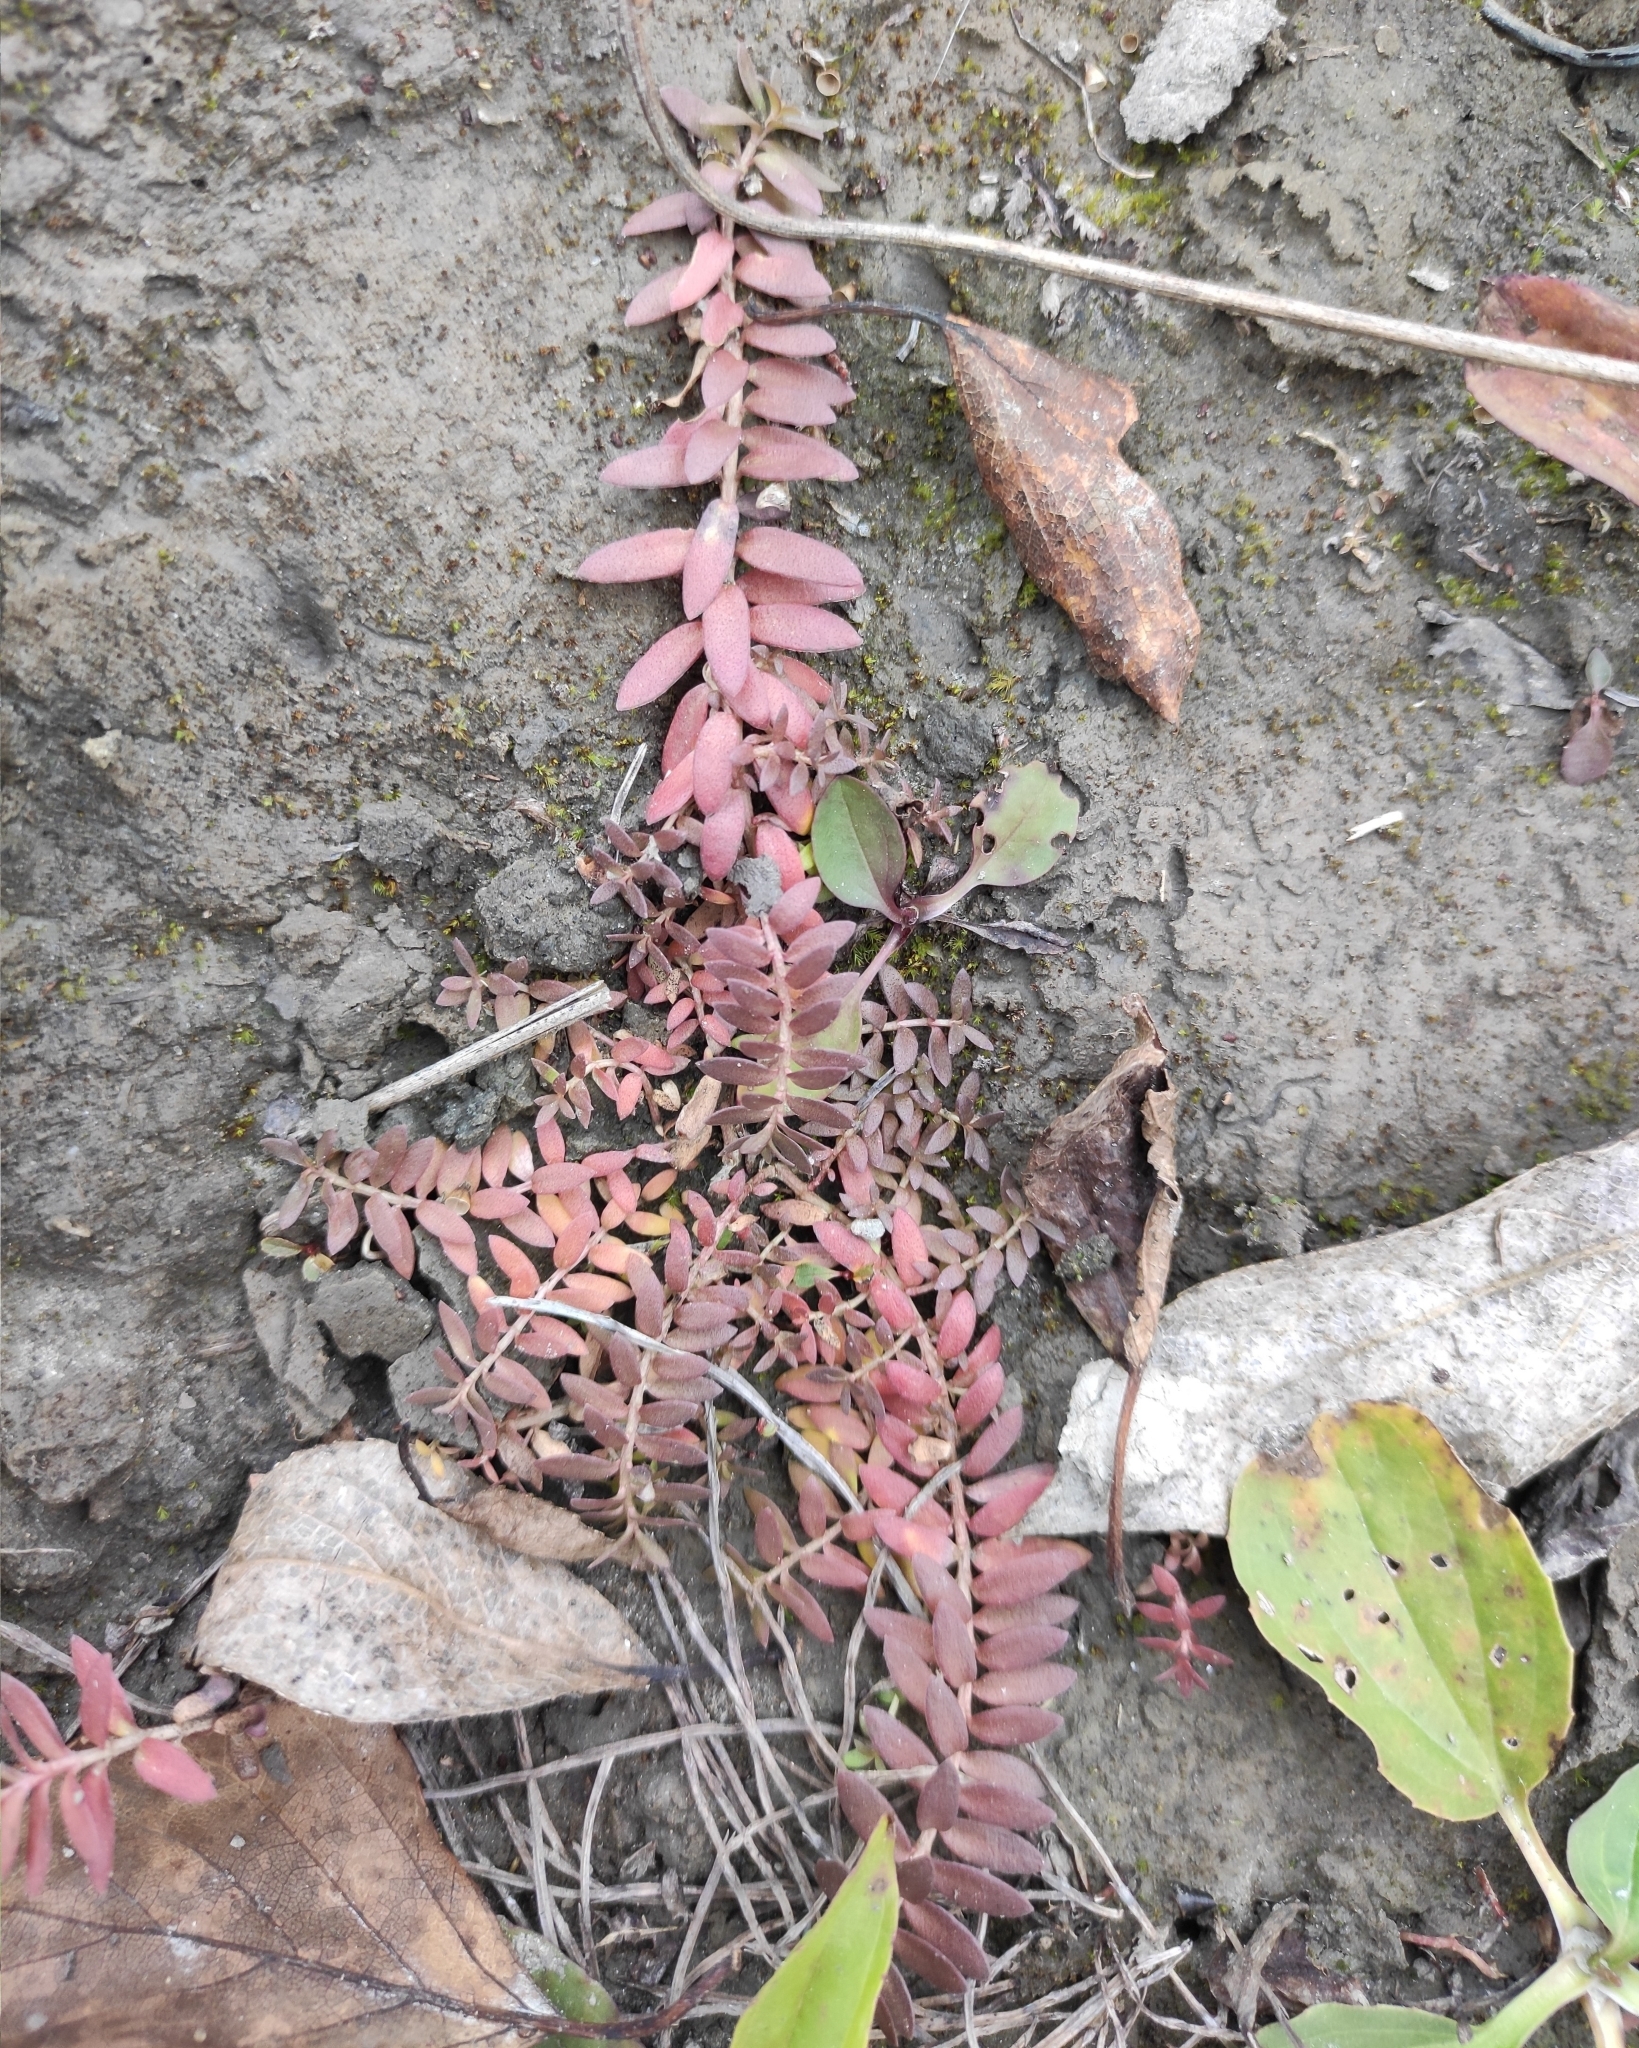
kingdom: Plantae
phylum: Tracheophyta
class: Magnoliopsida
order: Ericales
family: Primulaceae
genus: Lysimachia
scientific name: Lysimachia maritima
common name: Sea milkwort
